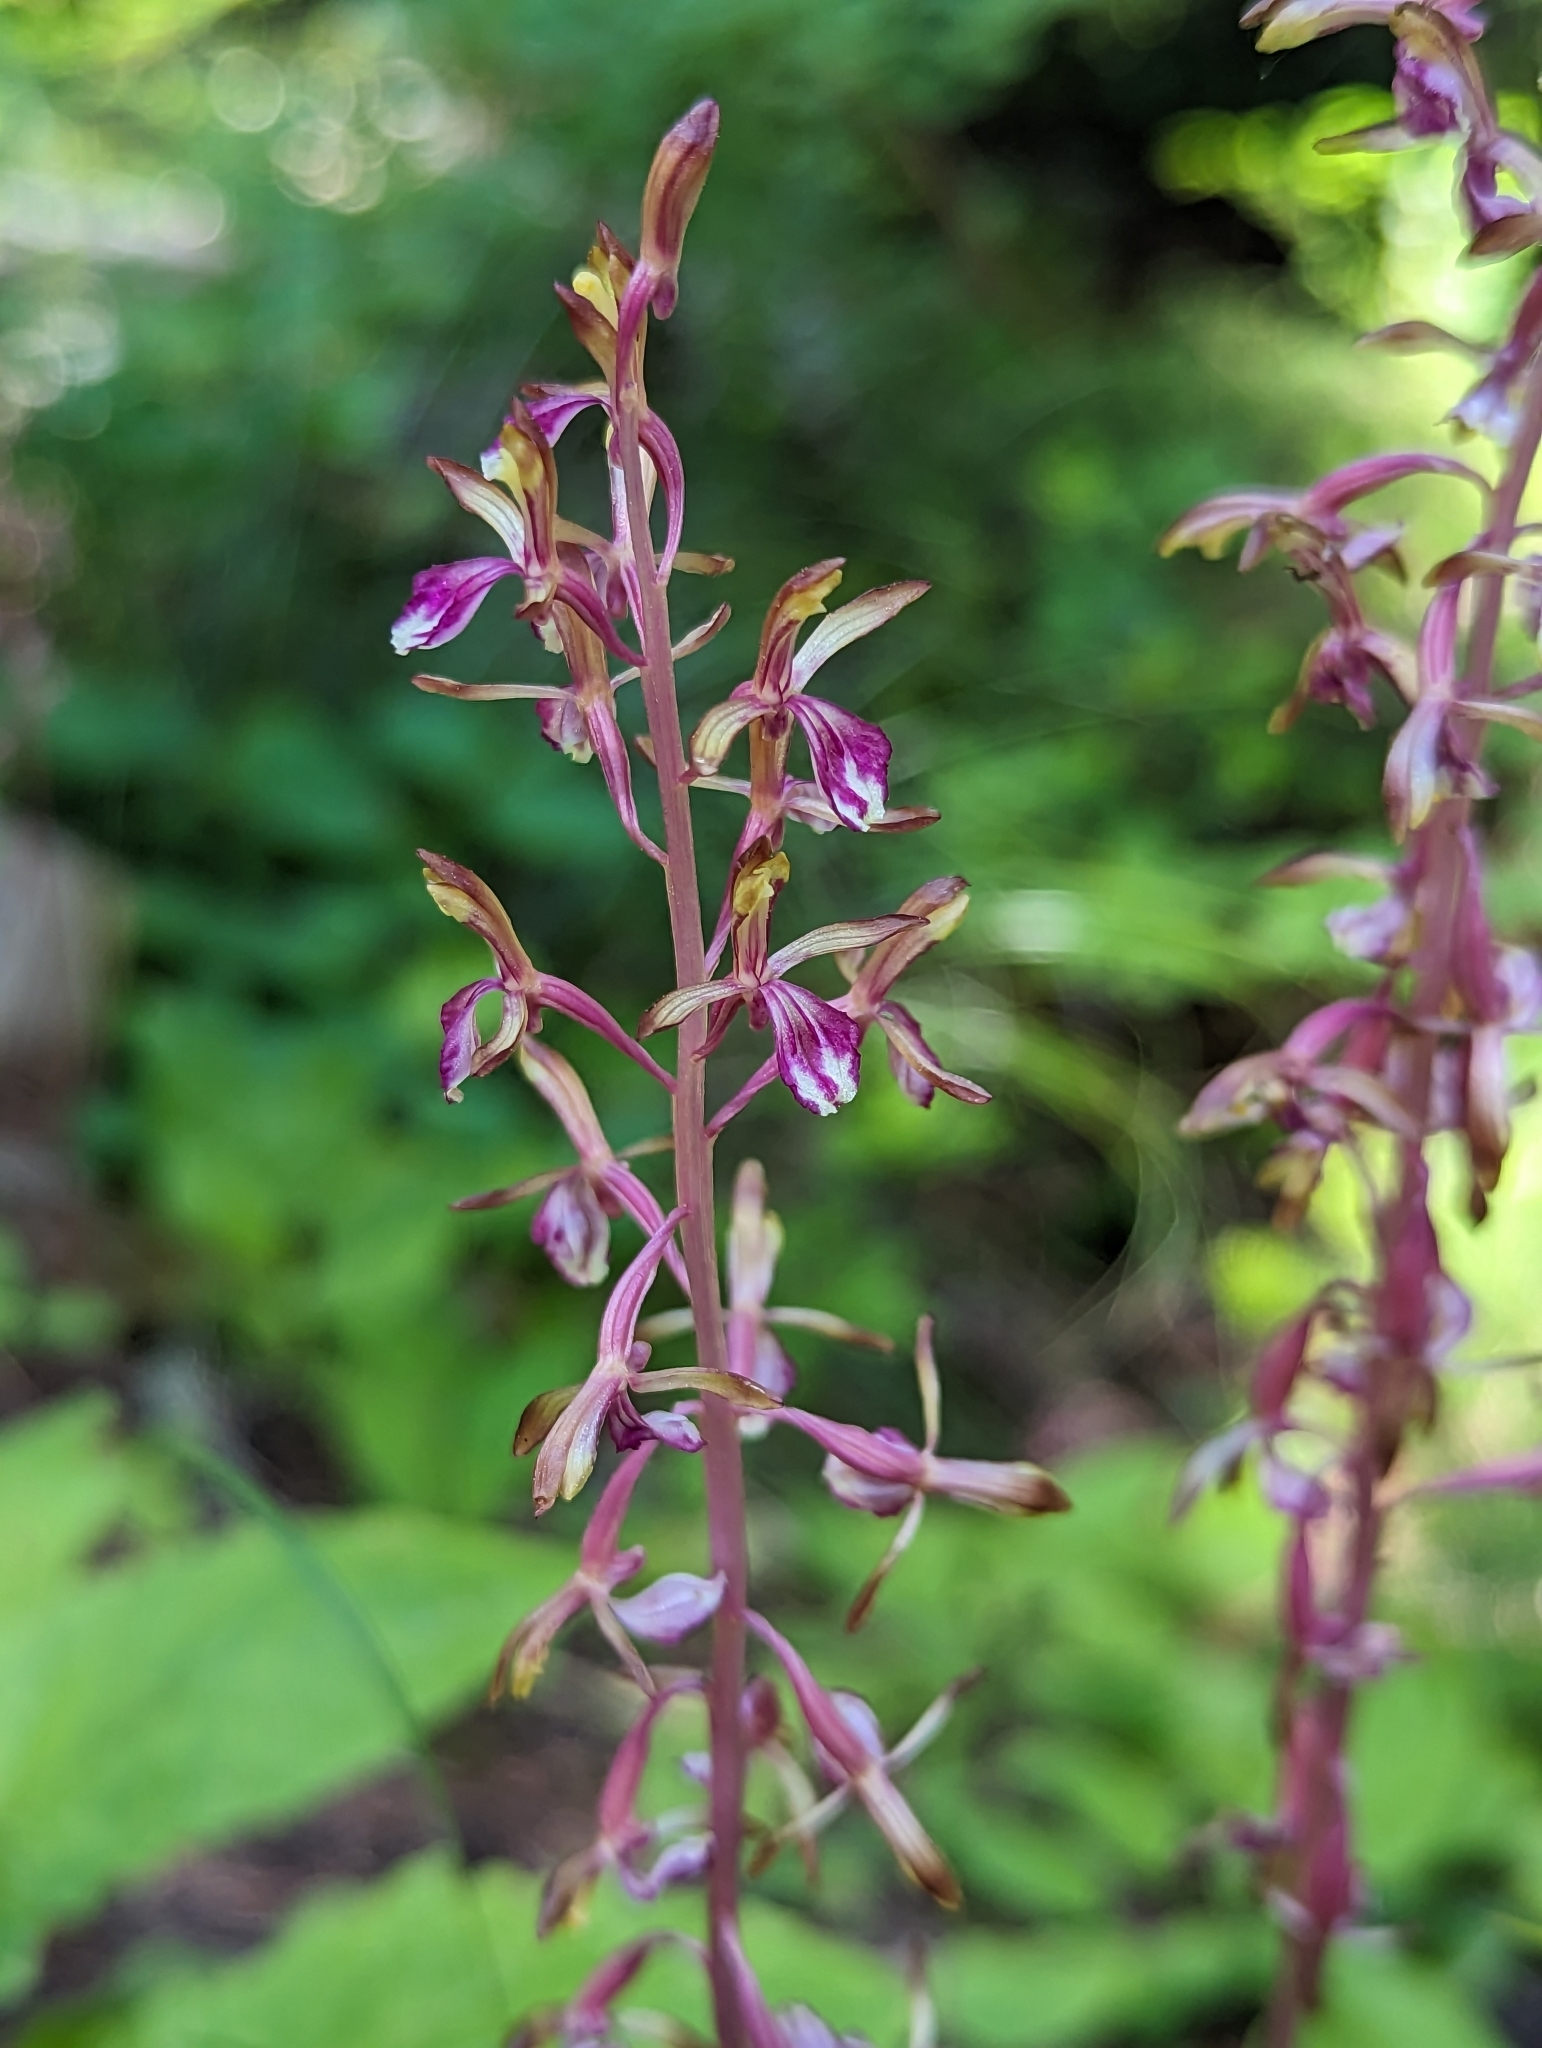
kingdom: Plantae
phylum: Tracheophyta
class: Liliopsida
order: Asparagales
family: Orchidaceae
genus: Corallorhiza
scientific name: Corallorhiza mertensiana
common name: Pacific coralroot
